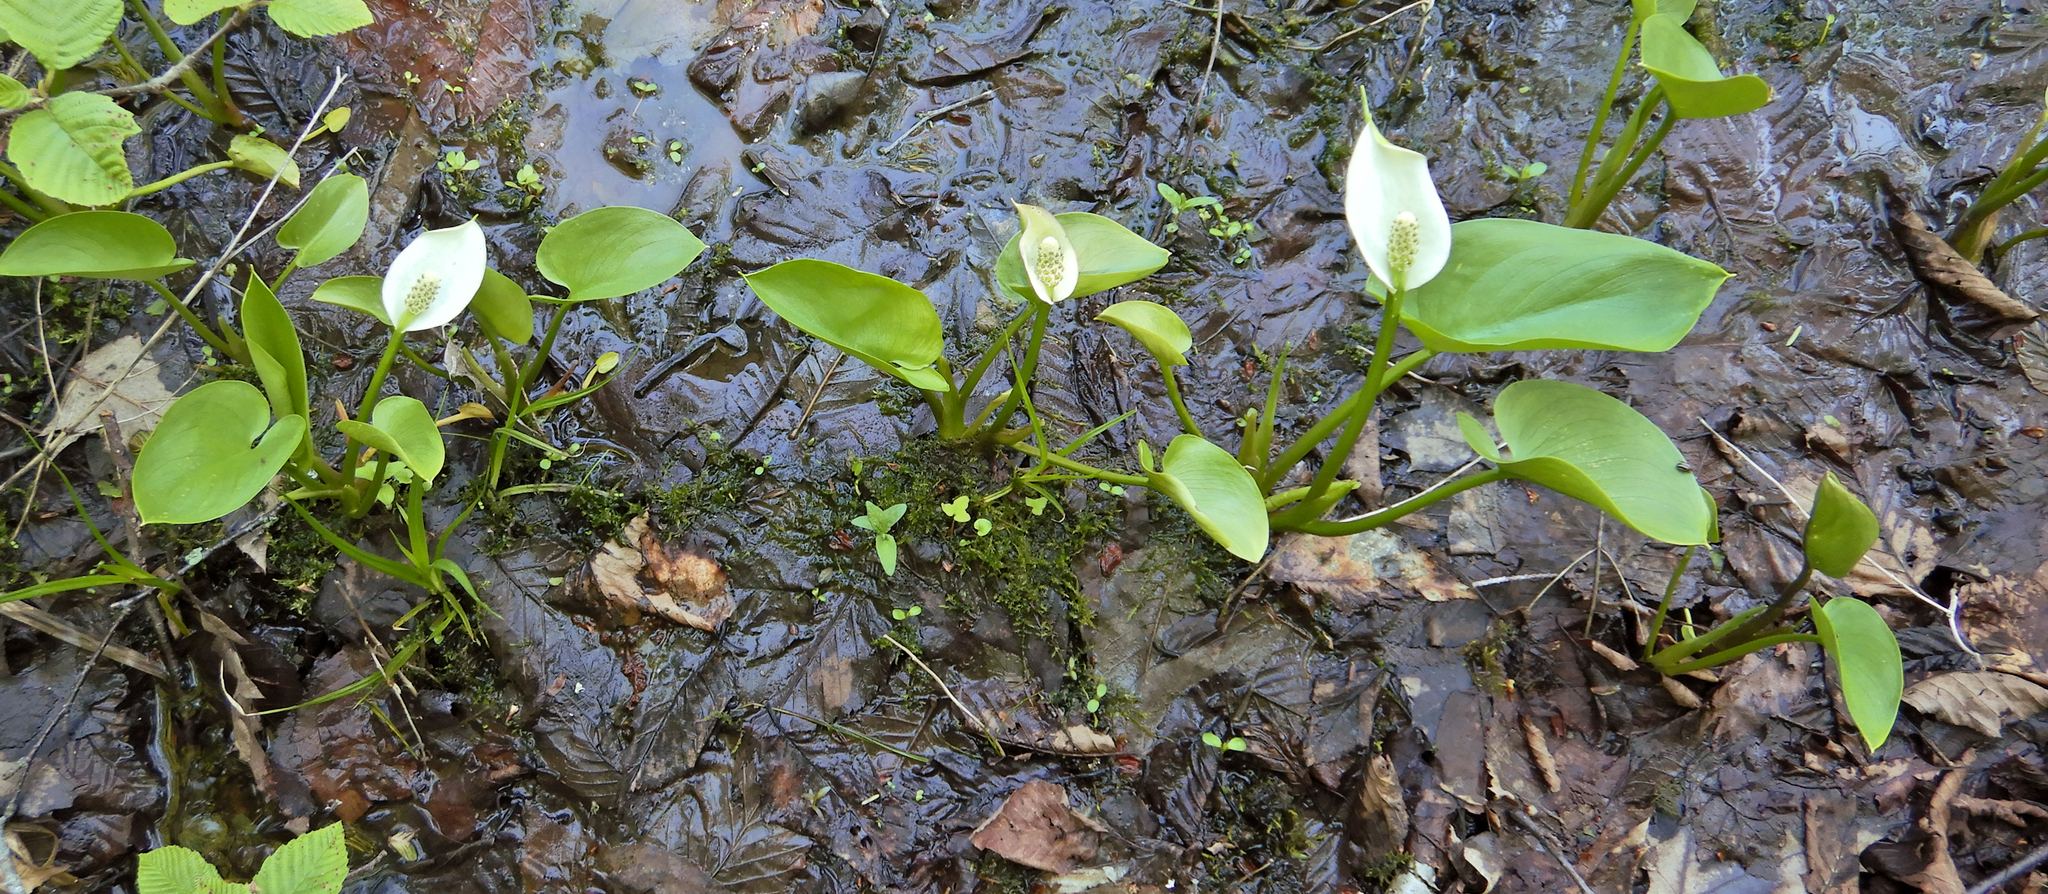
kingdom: Plantae
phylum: Tracheophyta
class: Liliopsida
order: Alismatales
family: Araceae
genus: Calla
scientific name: Calla palustris
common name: Bog arum
